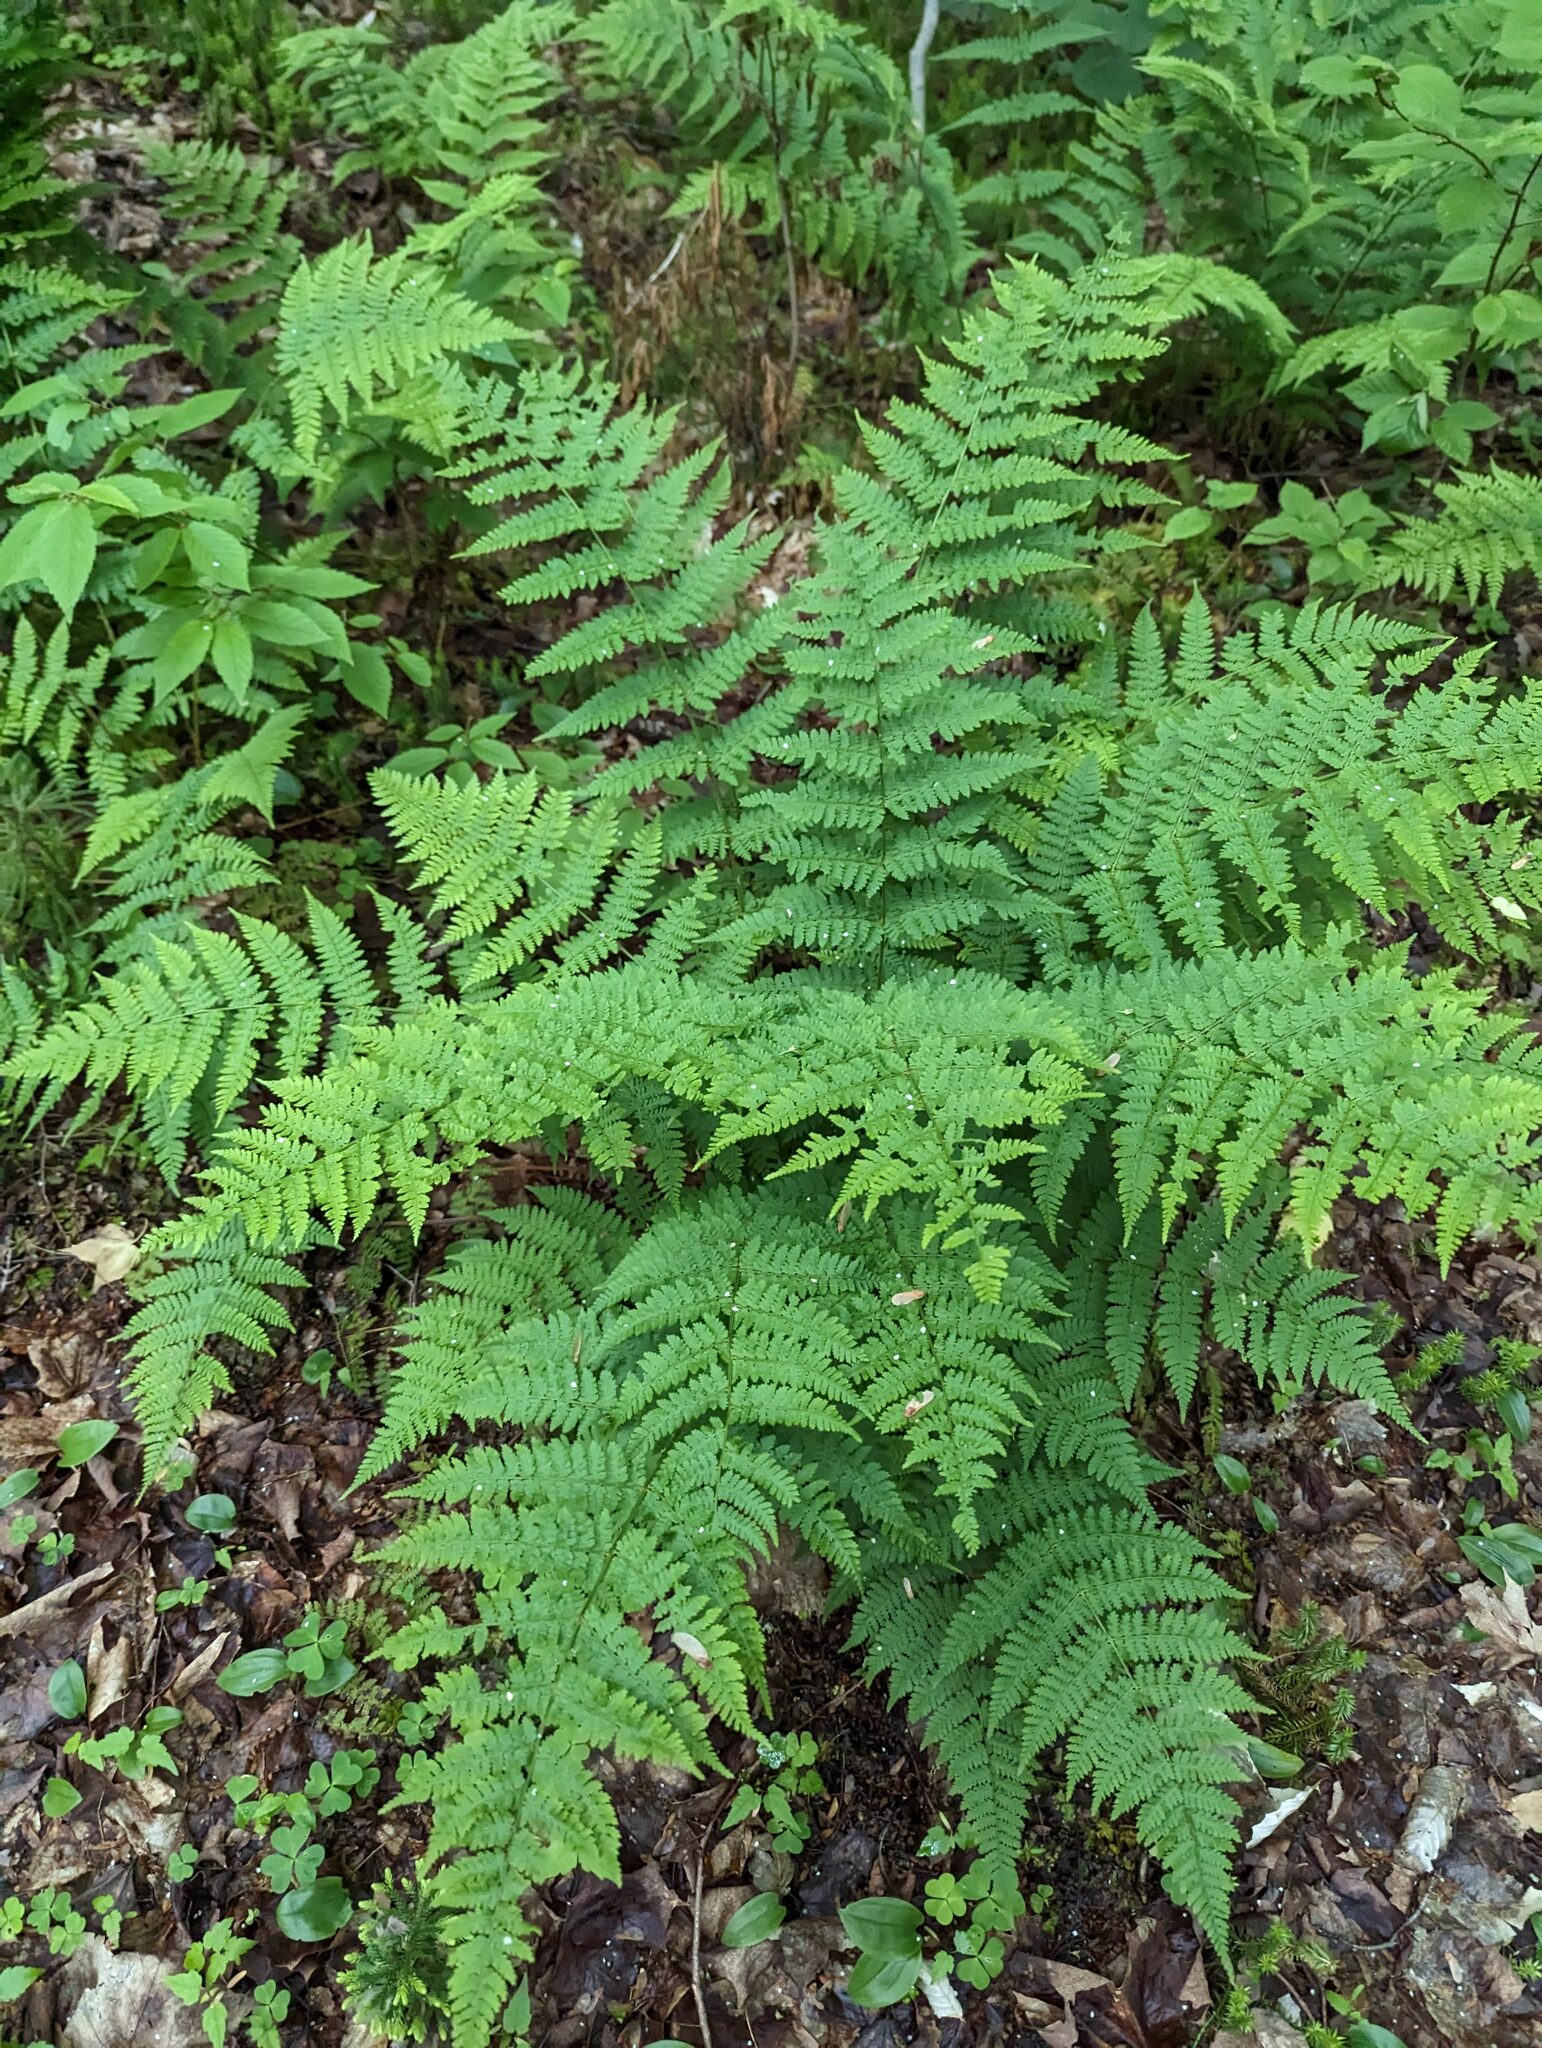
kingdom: Plantae
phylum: Tracheophyta
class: Polypodiopsida
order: Polypodiales
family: Dryopteridaceae
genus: Dryopteris
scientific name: Dryopteris intermedia
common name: Evergreen wood fern
